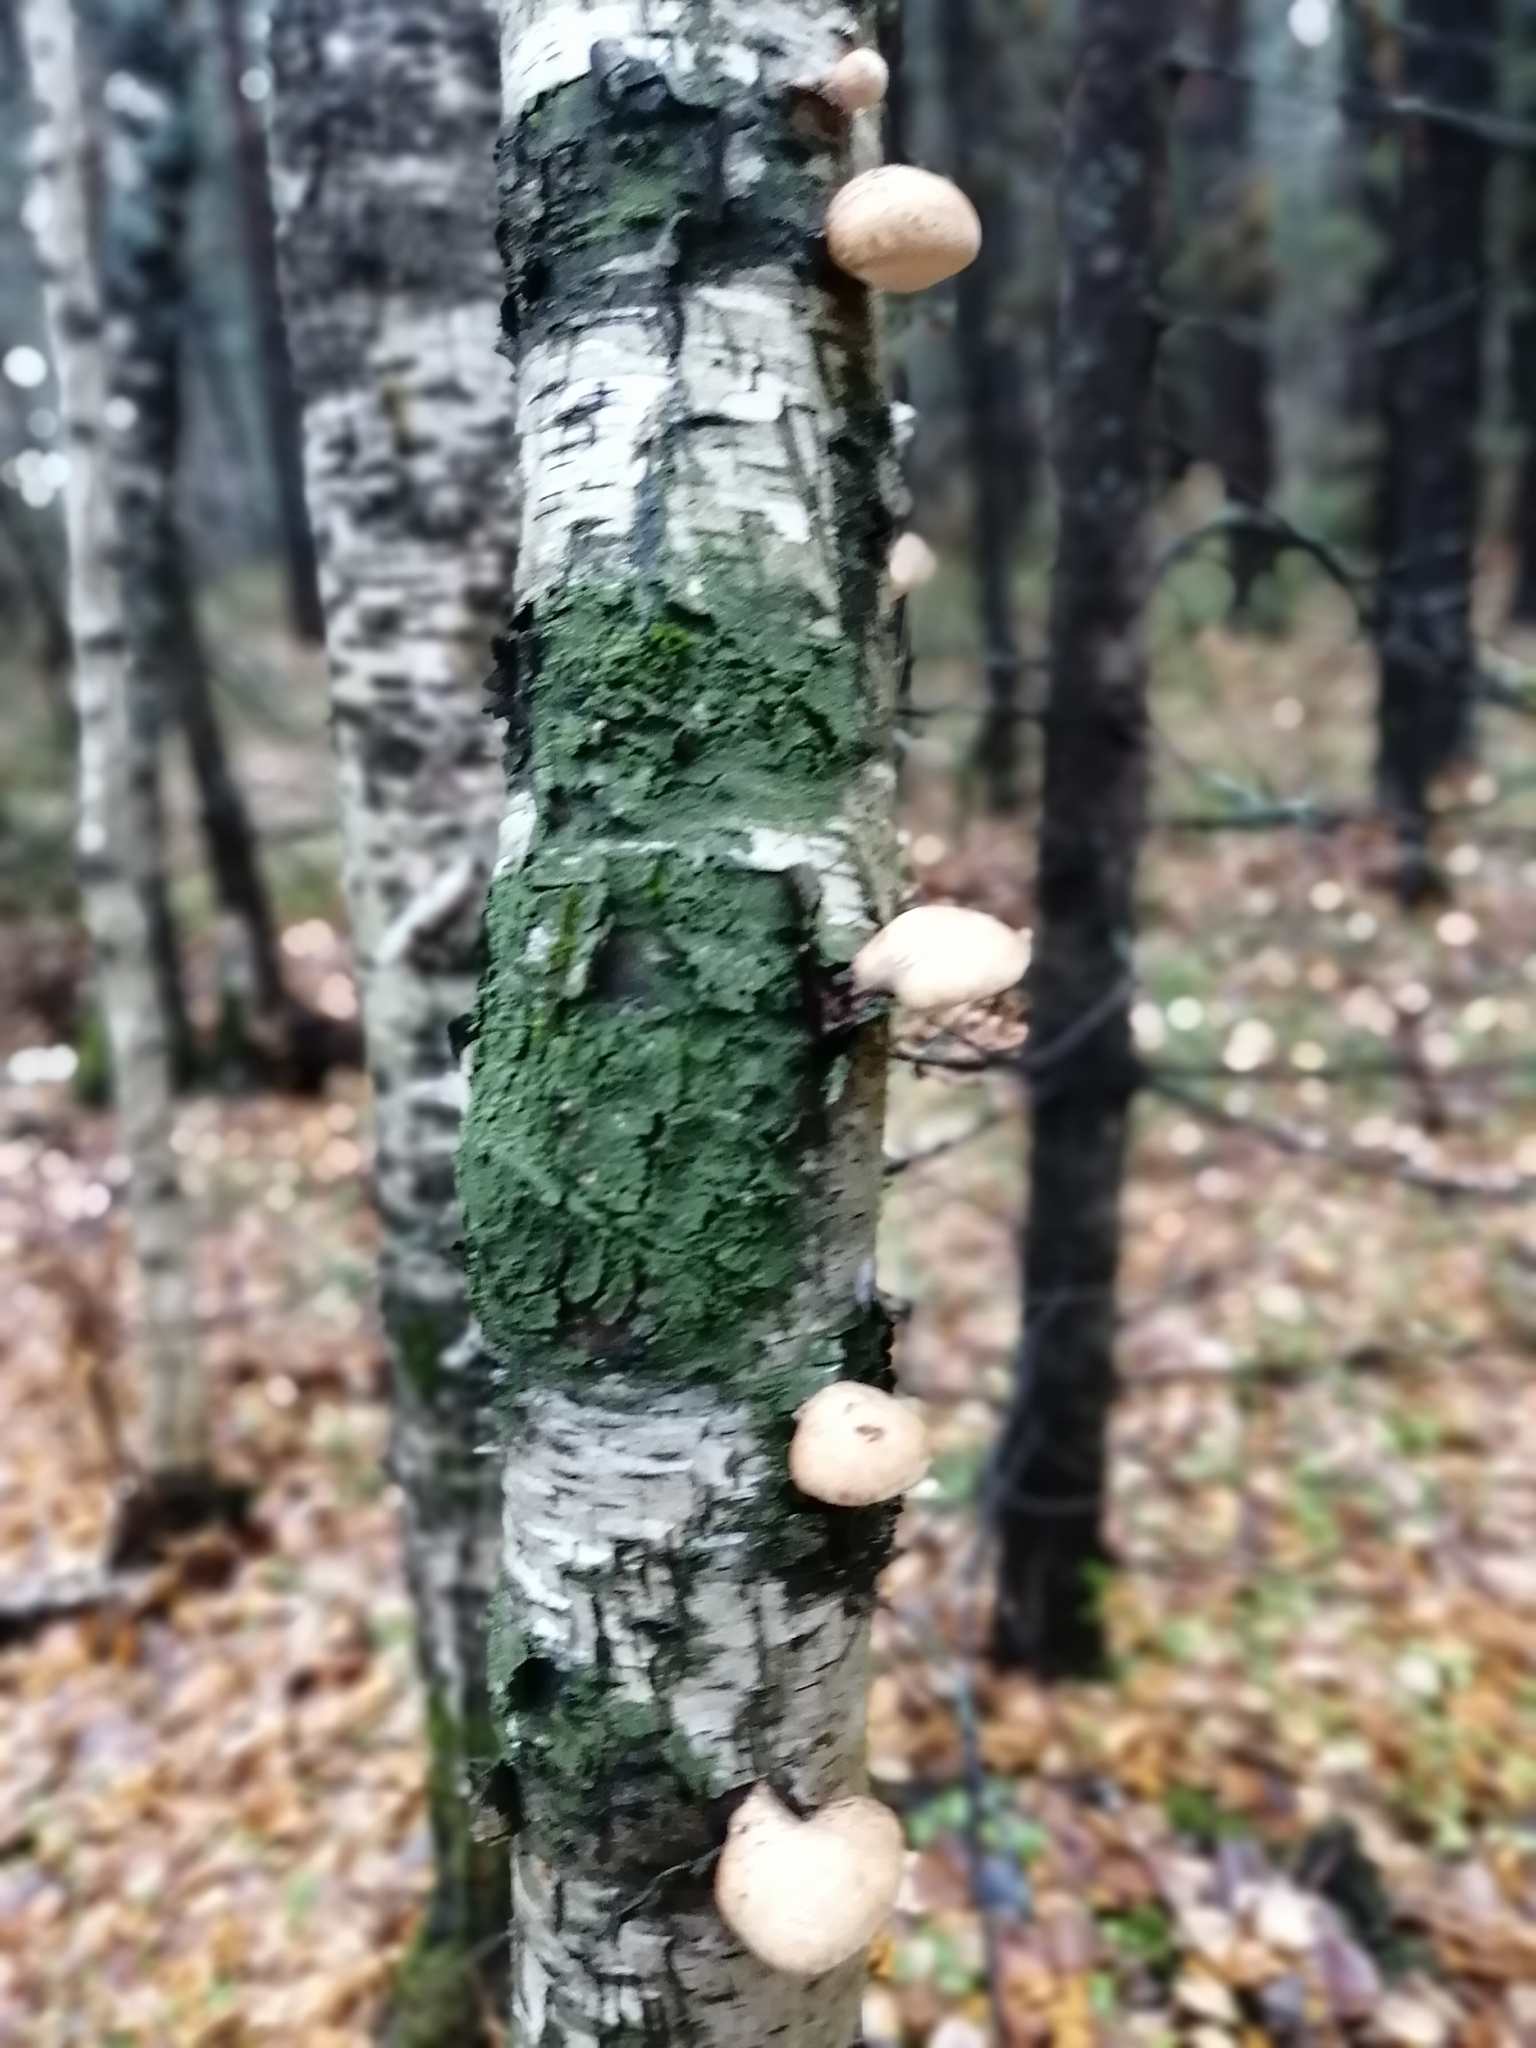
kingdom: Fungi
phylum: Basidiomycota
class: Agaricomycetes
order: Polyporales
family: Fomitopsidaceae
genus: Fomitopsis
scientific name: Fomitopsis betulina
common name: Birch polypore
